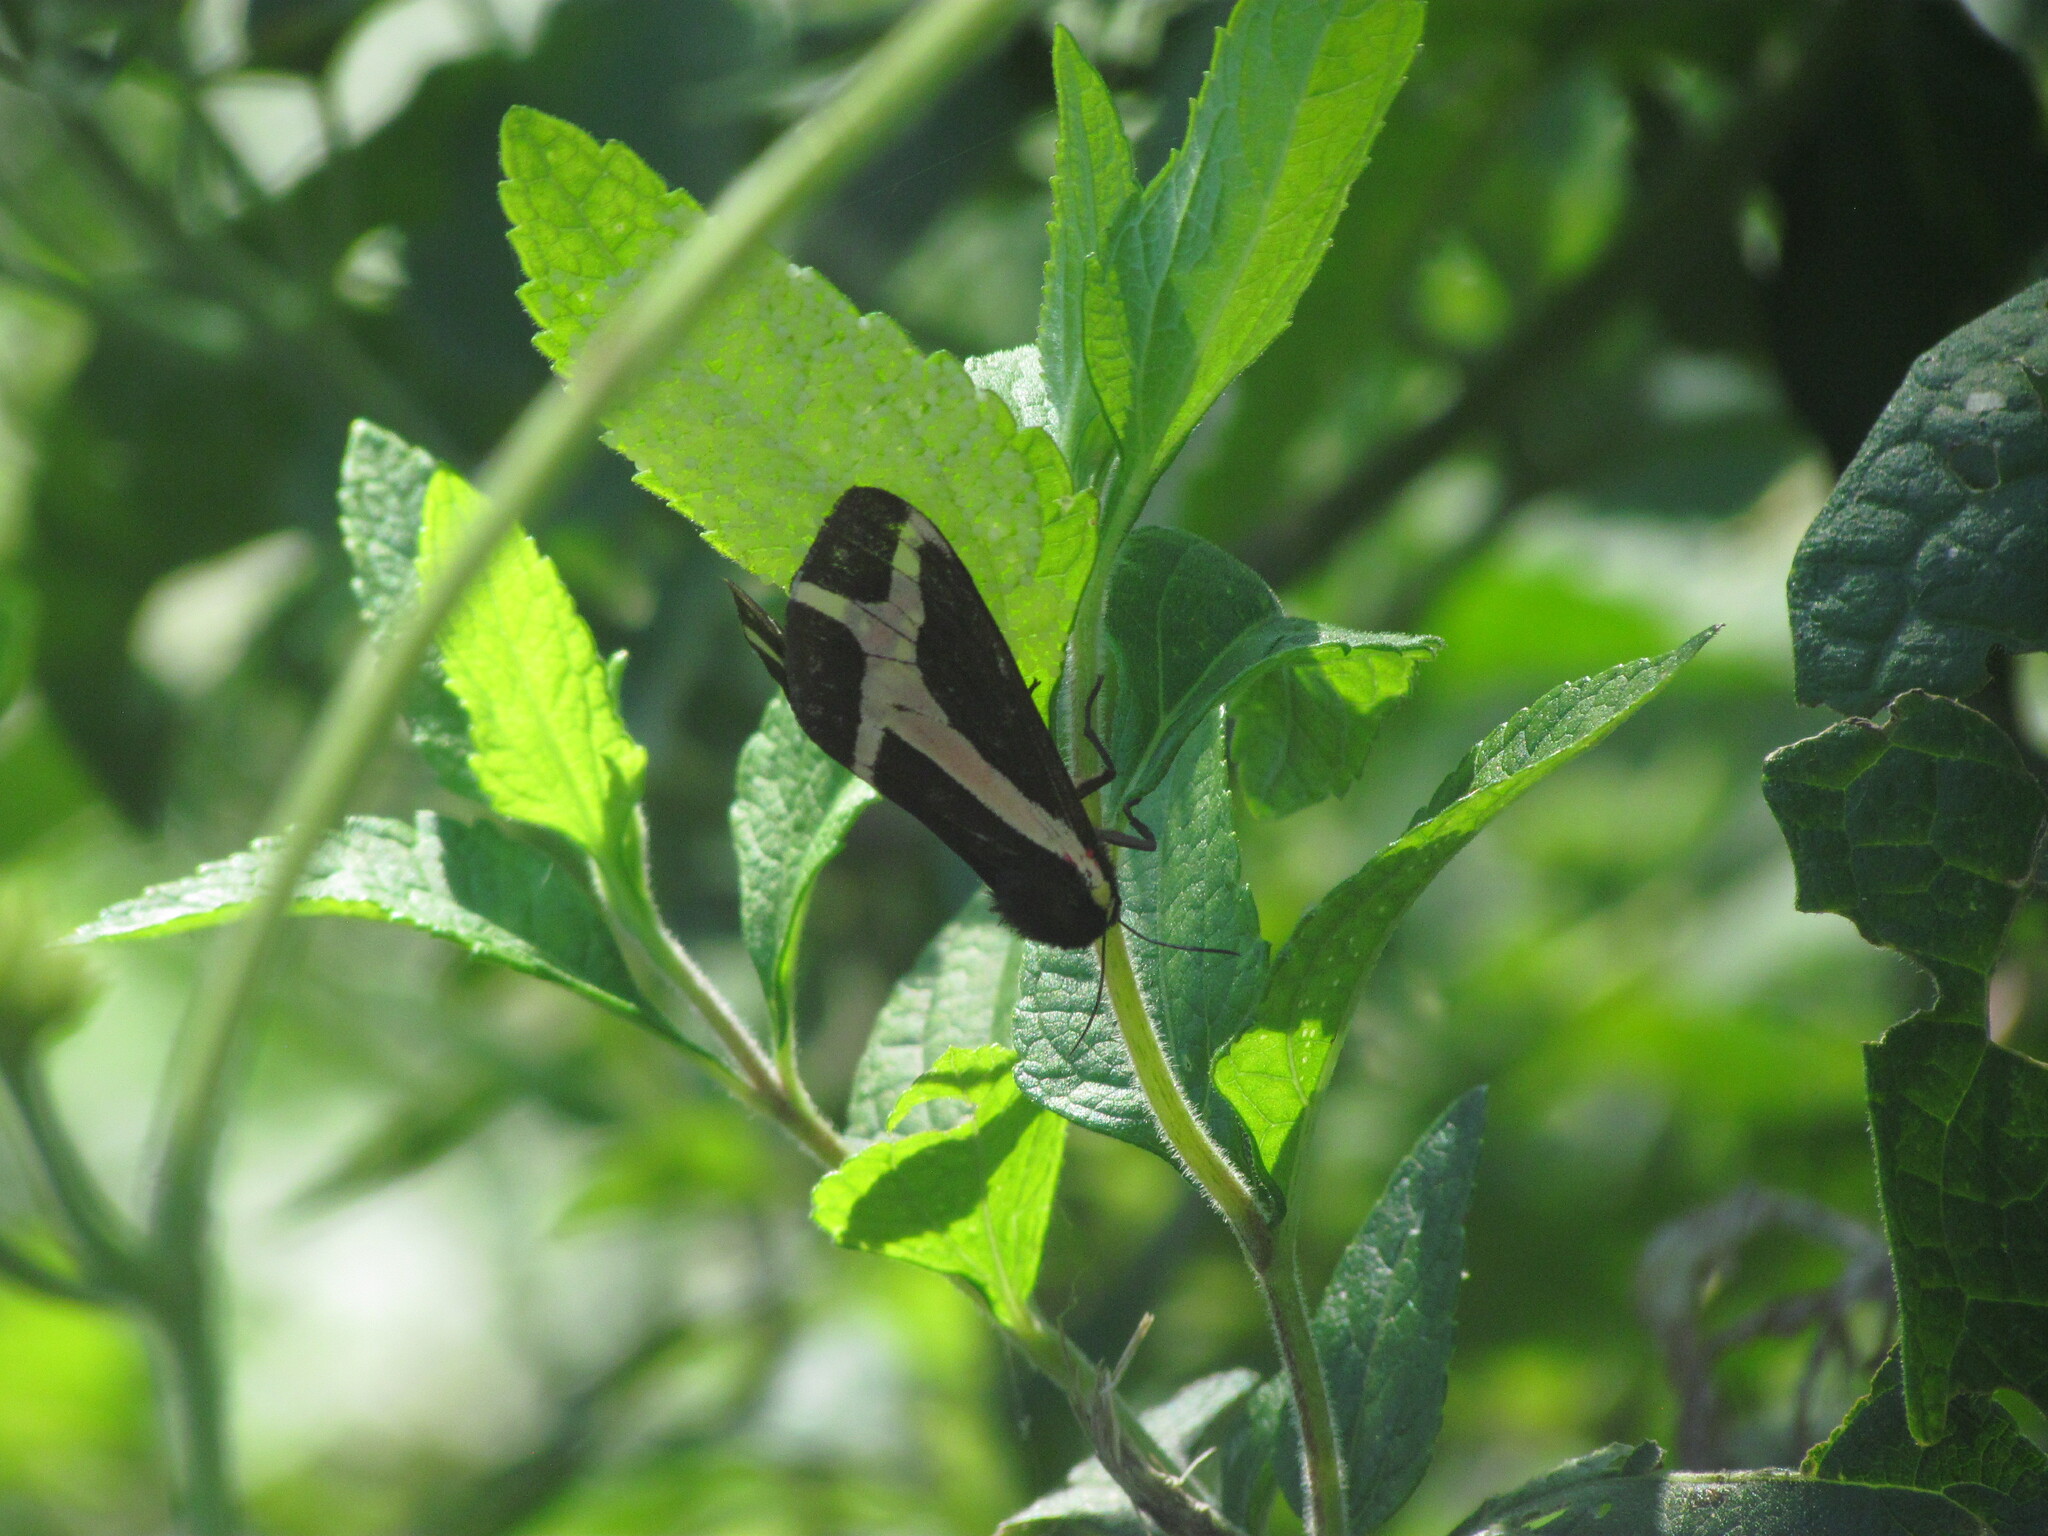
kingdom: Animalia
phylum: Arthropoda
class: Insecta
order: Lepidoptera
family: Erebidae
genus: Dysschema
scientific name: Dysschema sacrifica
